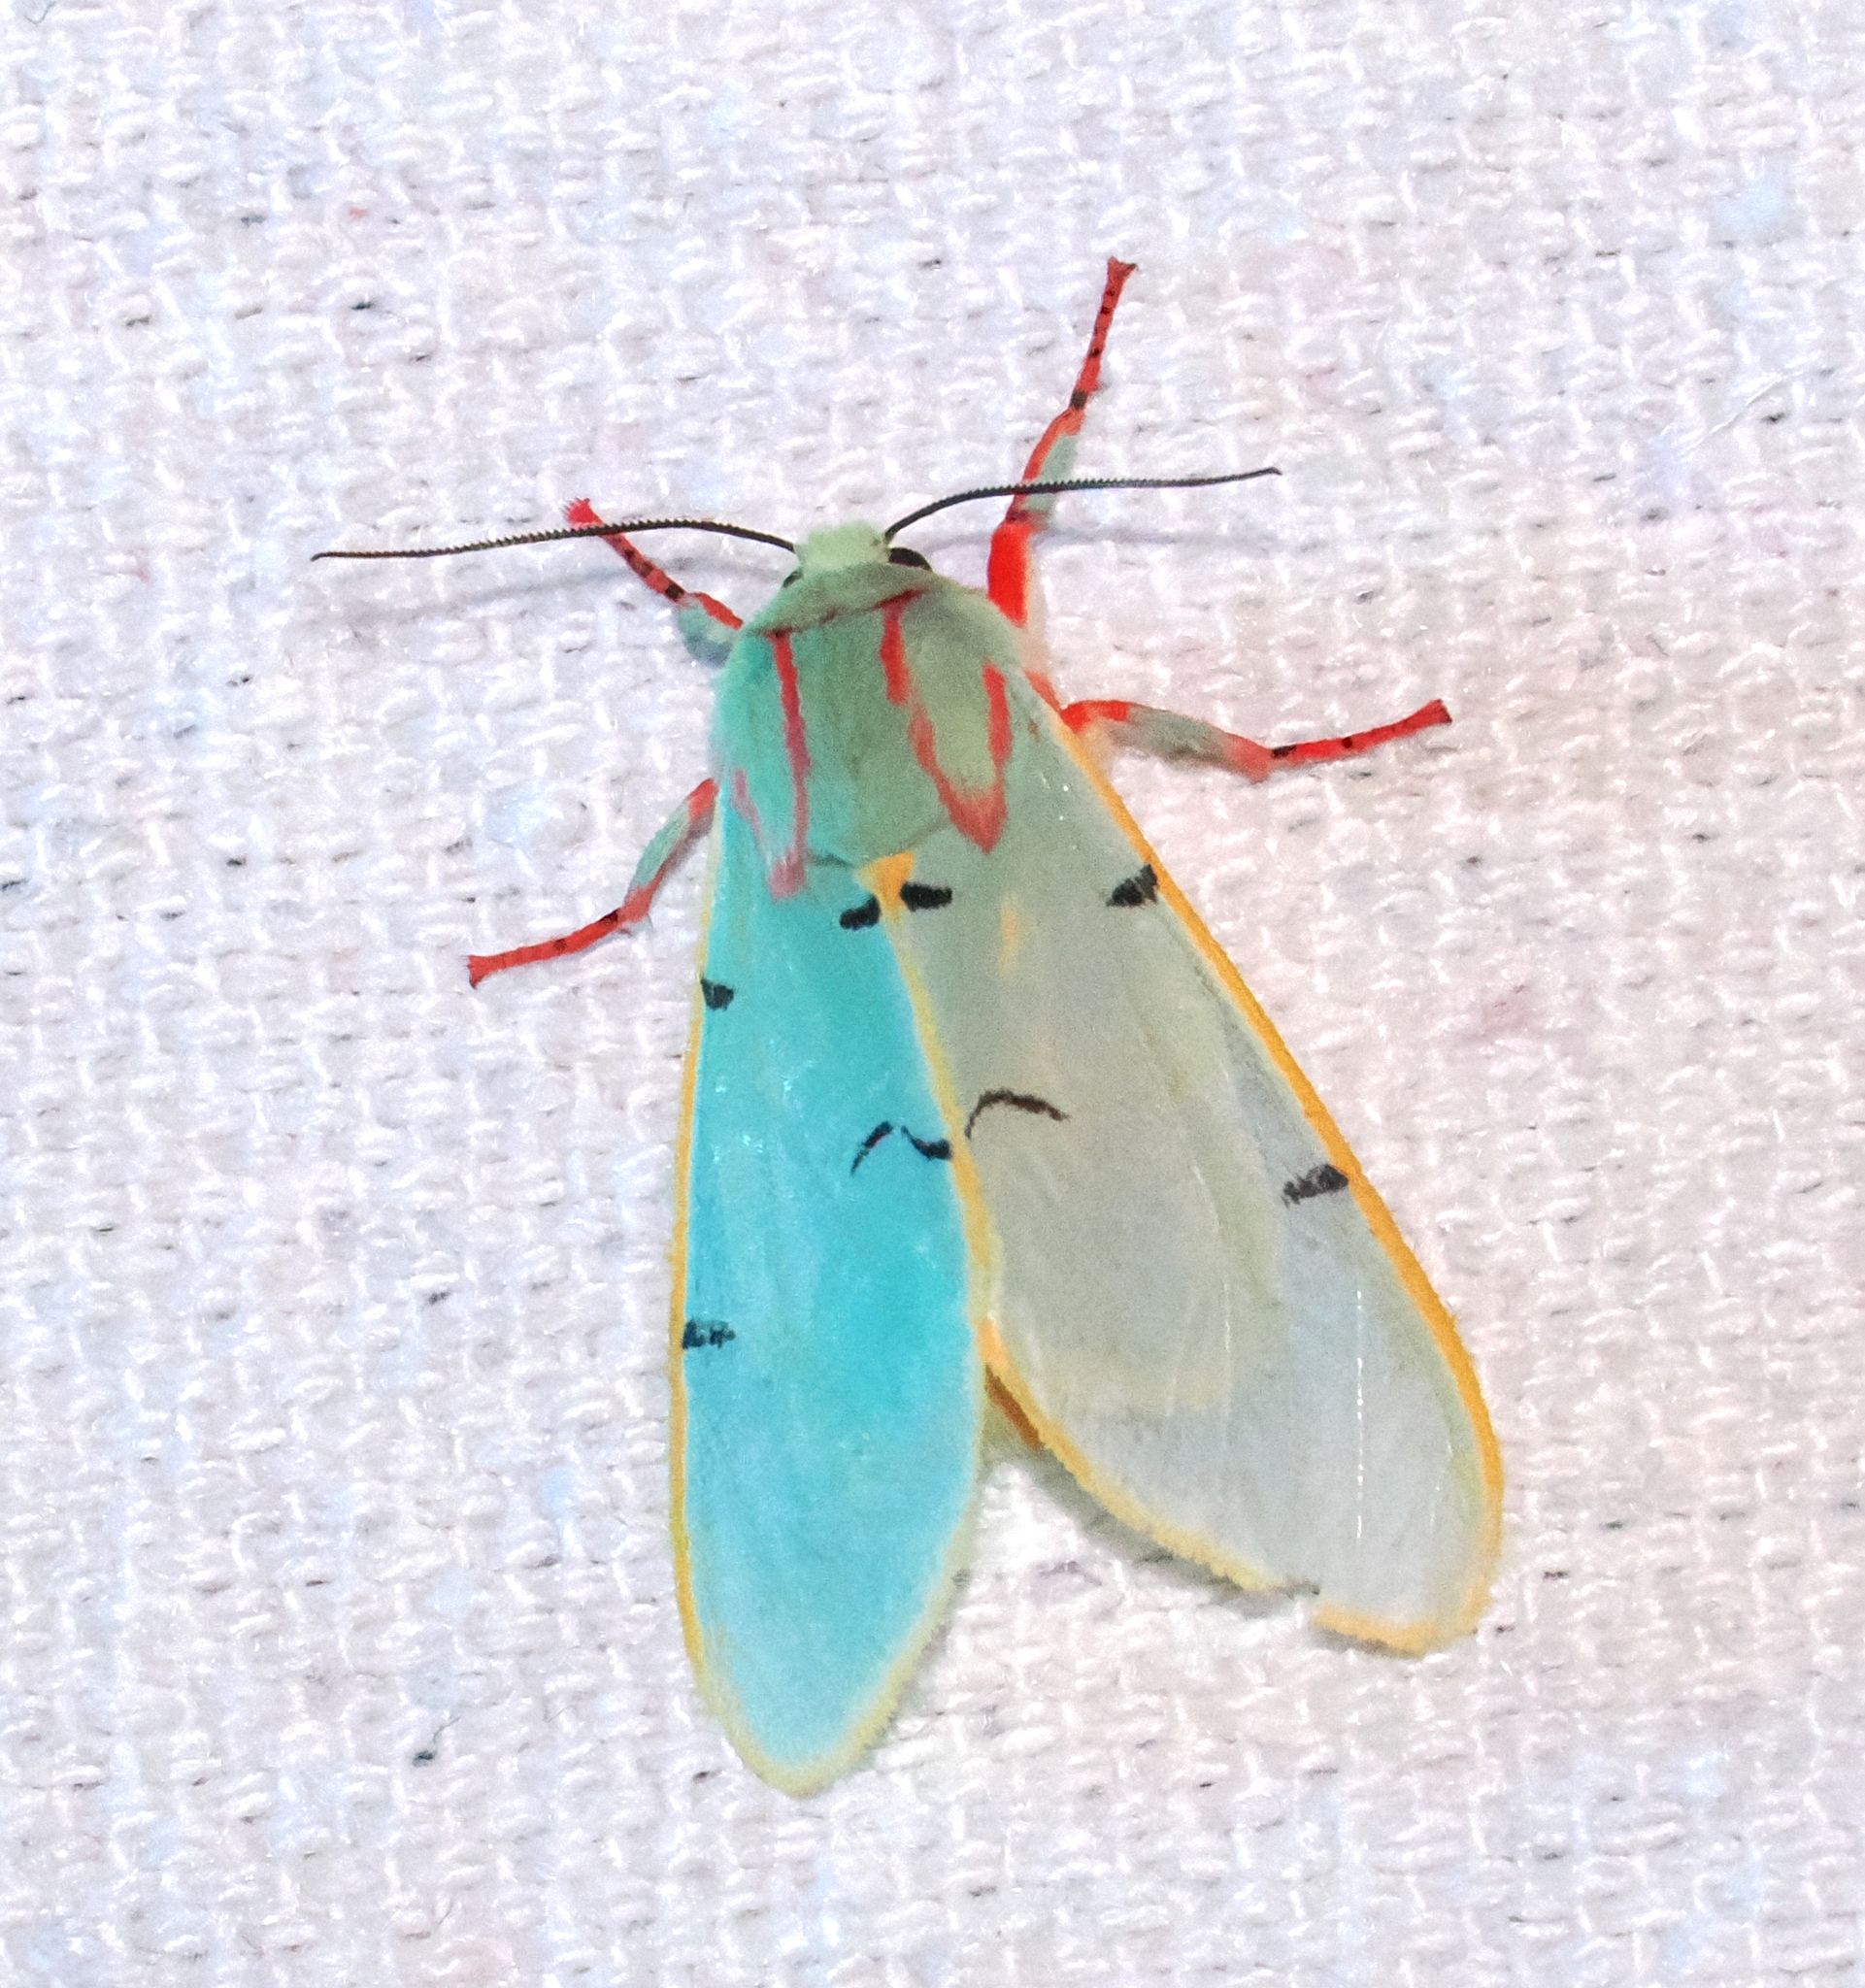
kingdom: Animalia
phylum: Arthropoda
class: Insecta
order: Lepidoptera
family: Erebidae
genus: Chlorhoda
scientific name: Chlorhoda viridis
